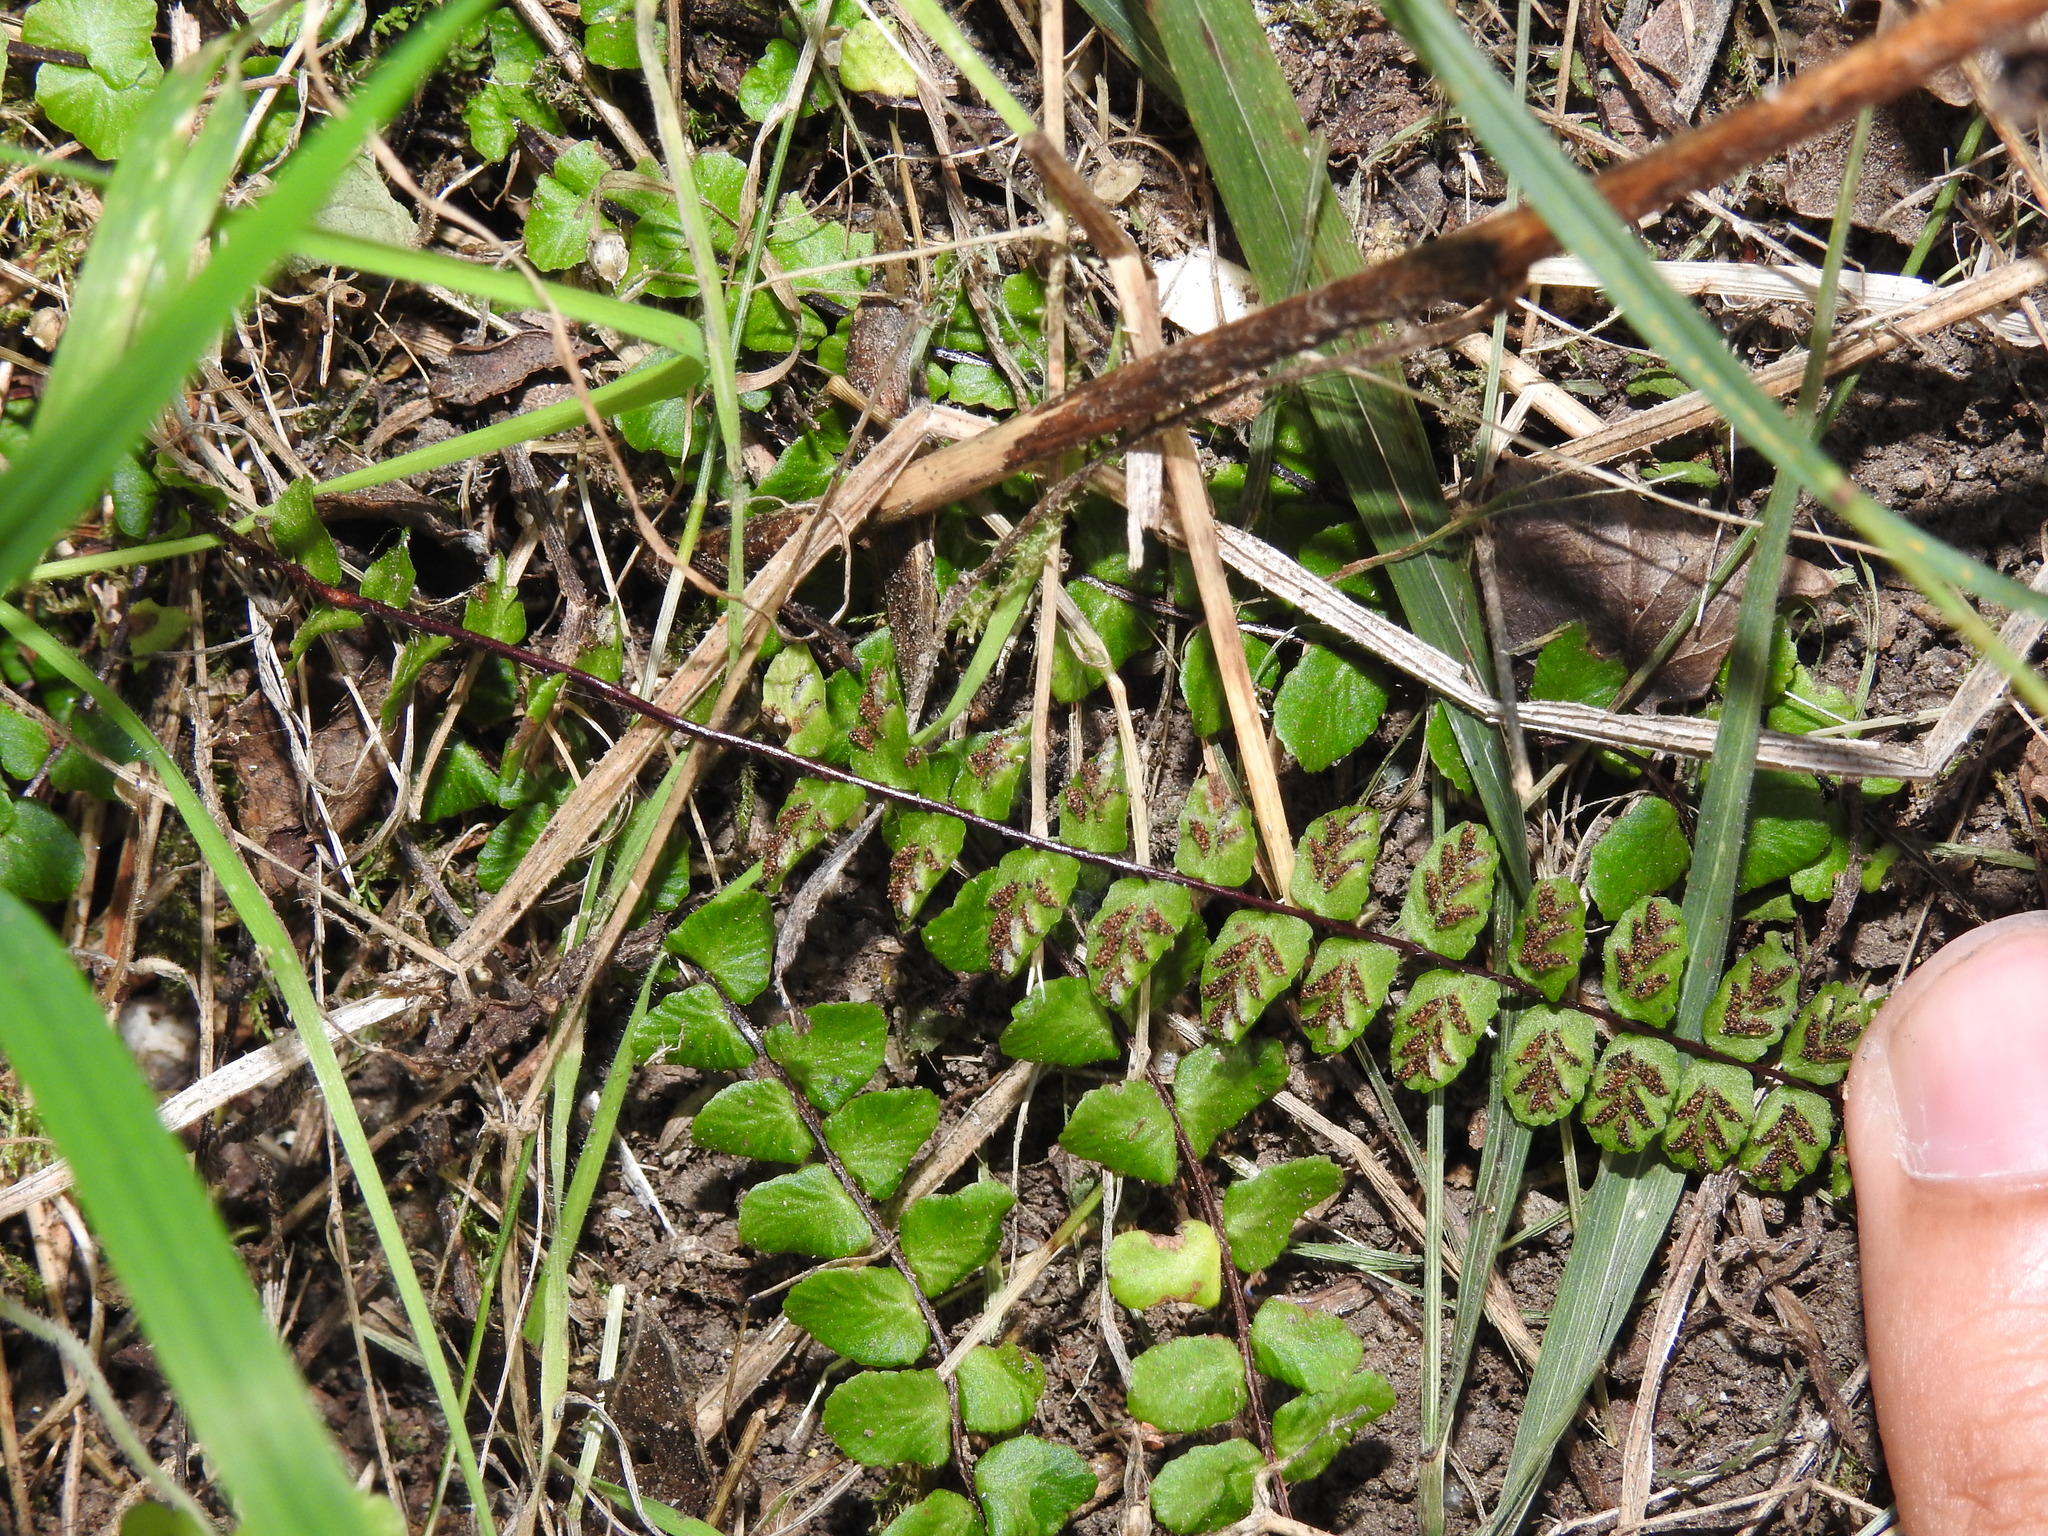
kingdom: Plantae
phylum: Tracheophyta
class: Polypodiopsida
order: Polypodiales
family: Aspleniaceae
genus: Asplenium
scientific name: Asplenium trichomanes
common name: Maidenhair spleenwort
